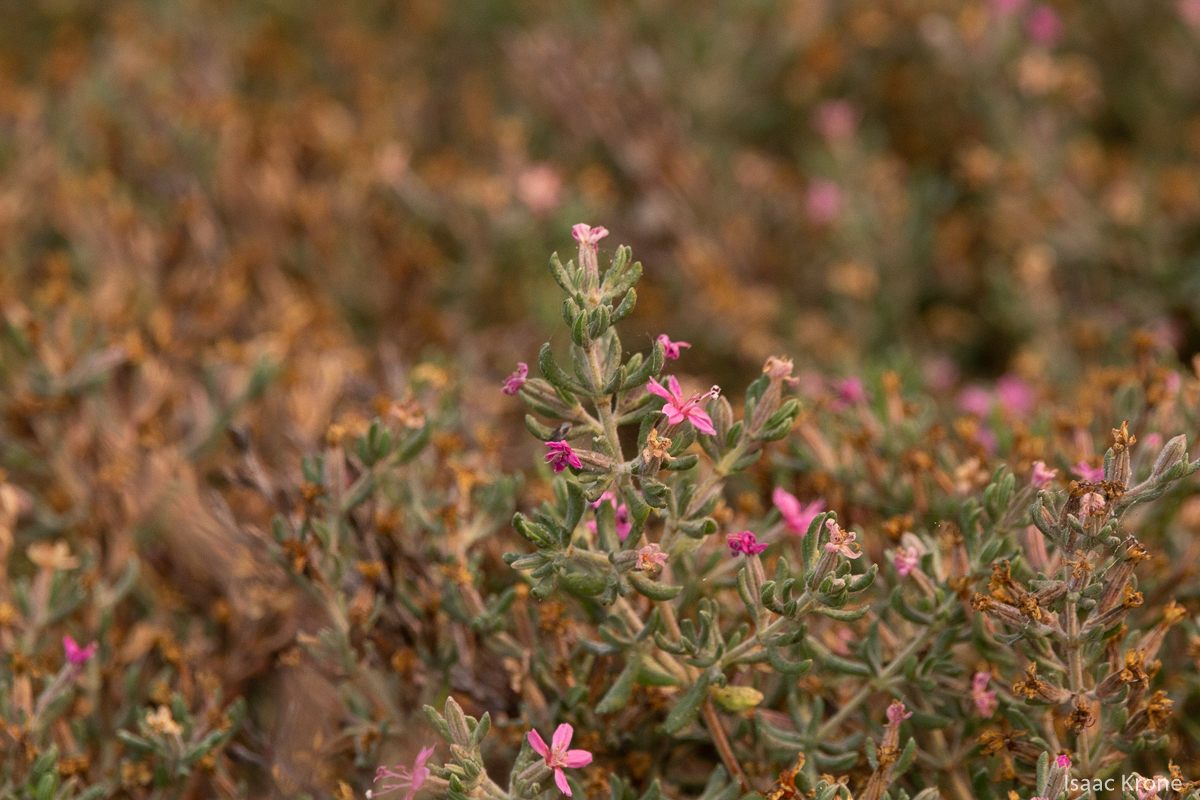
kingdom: Plantae
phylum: Tracheophyta
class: Magnoliopsida
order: Caryophyllales
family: Frankeniaceae
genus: Frankenia
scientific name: Frankenia salina
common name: Alkali seaheath
